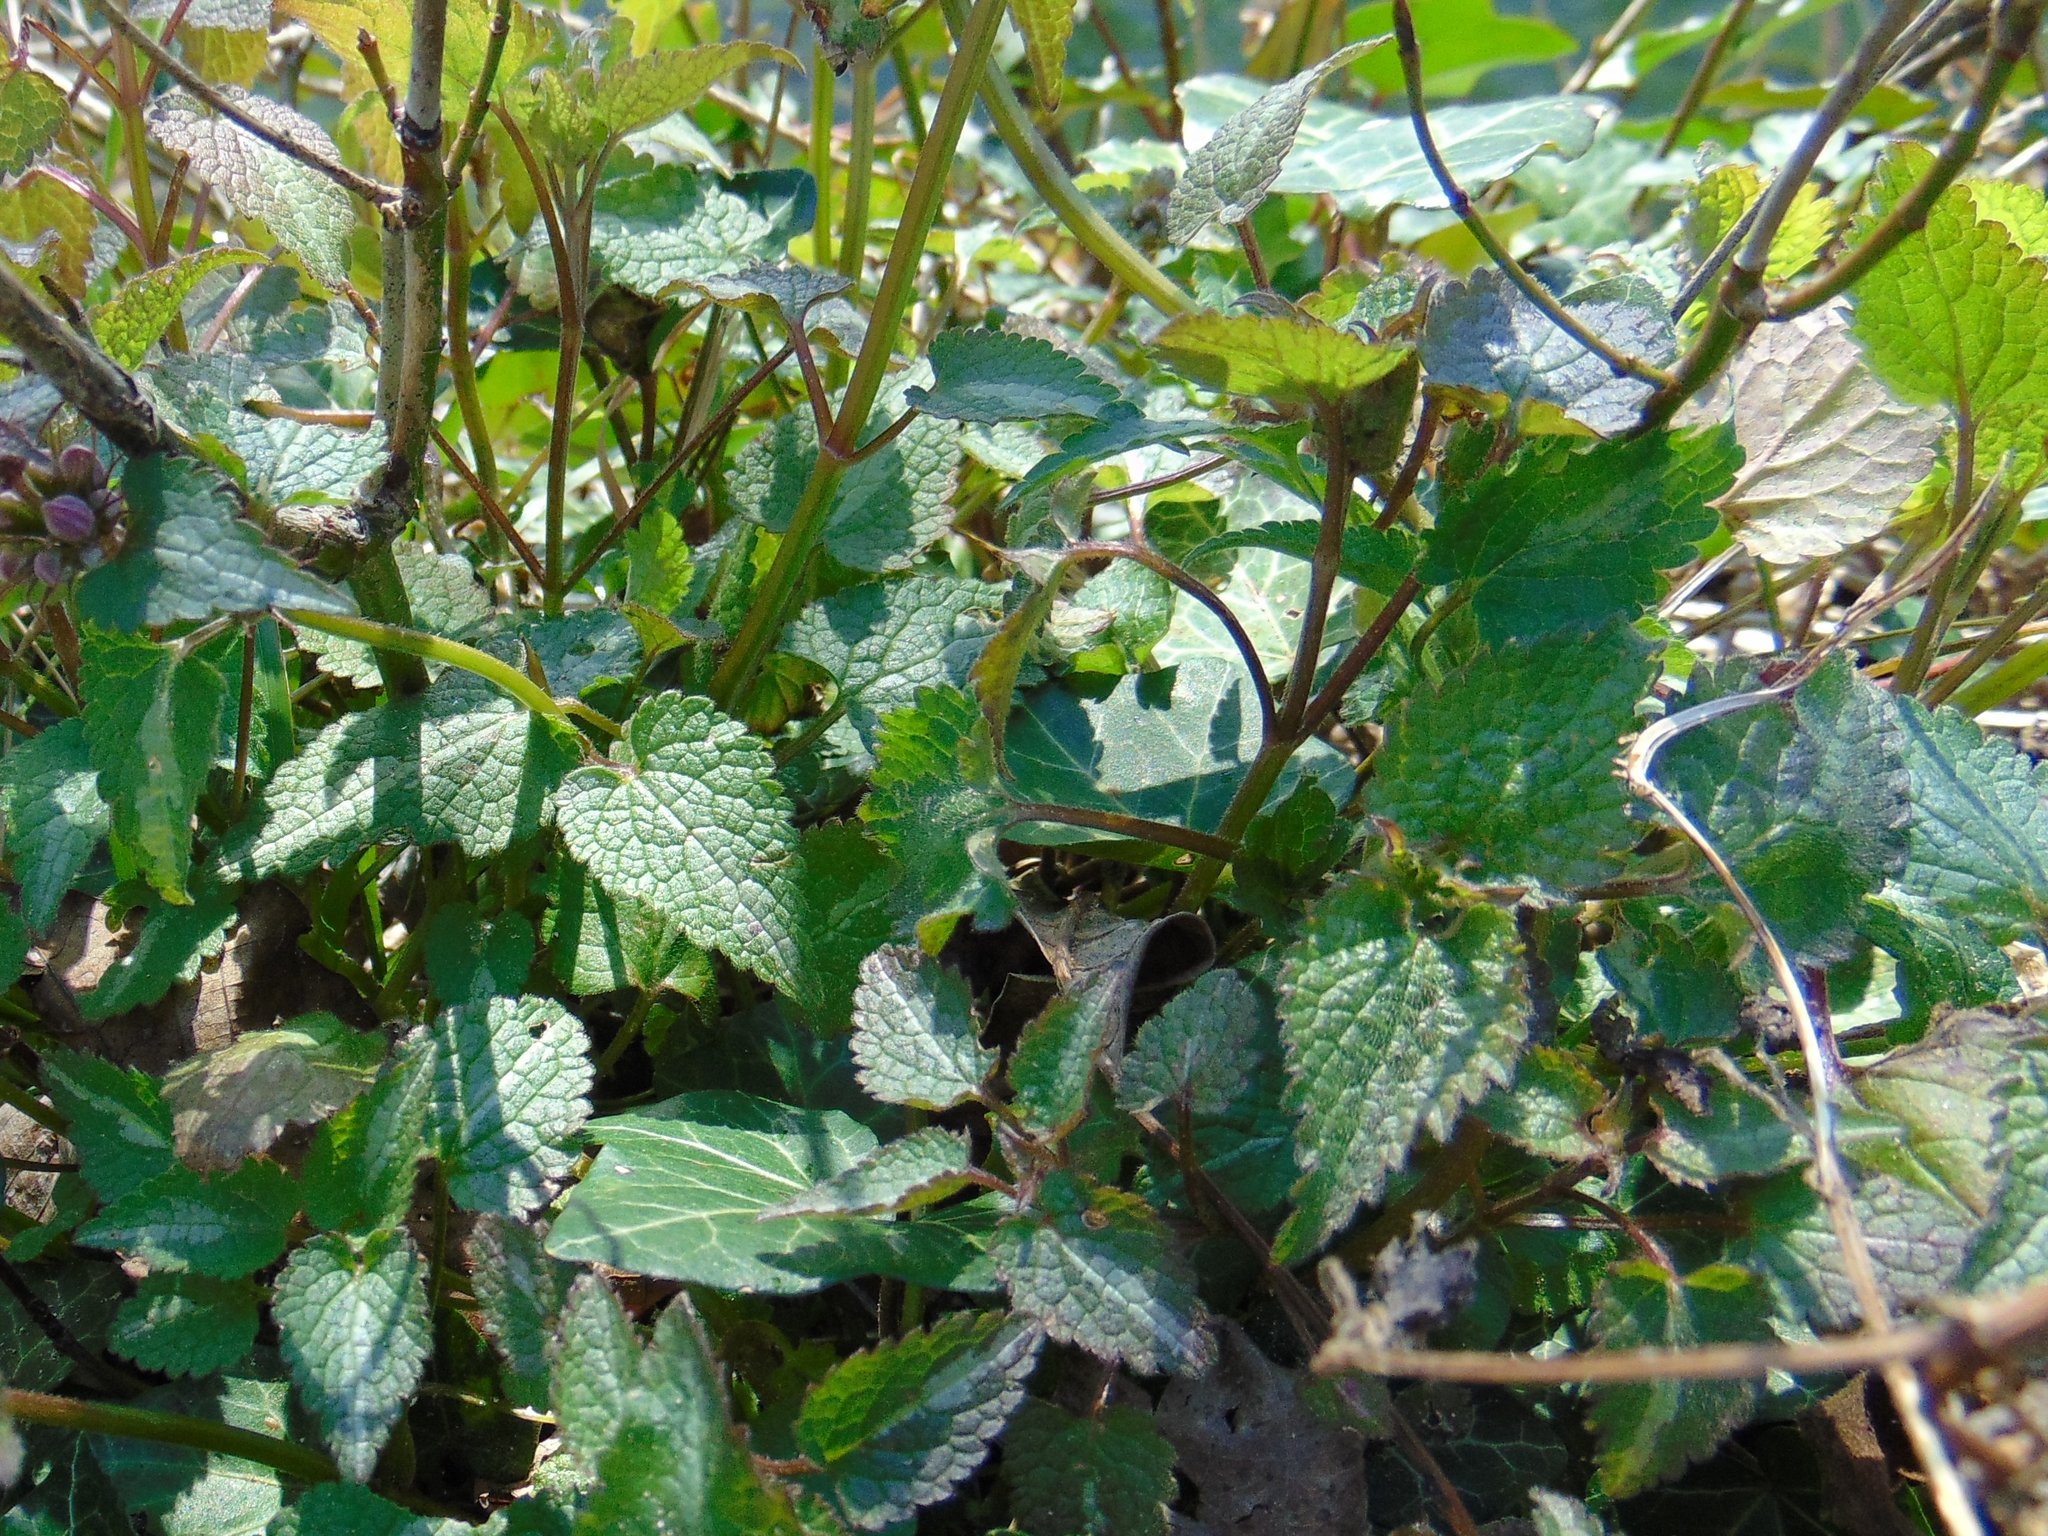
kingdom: Plantae
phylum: Tracheophyta
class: Magnoliopsida
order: Lamiales
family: Lamiaceae
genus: Lamium
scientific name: Lamium maculatum
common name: Spotted dead-nettle
